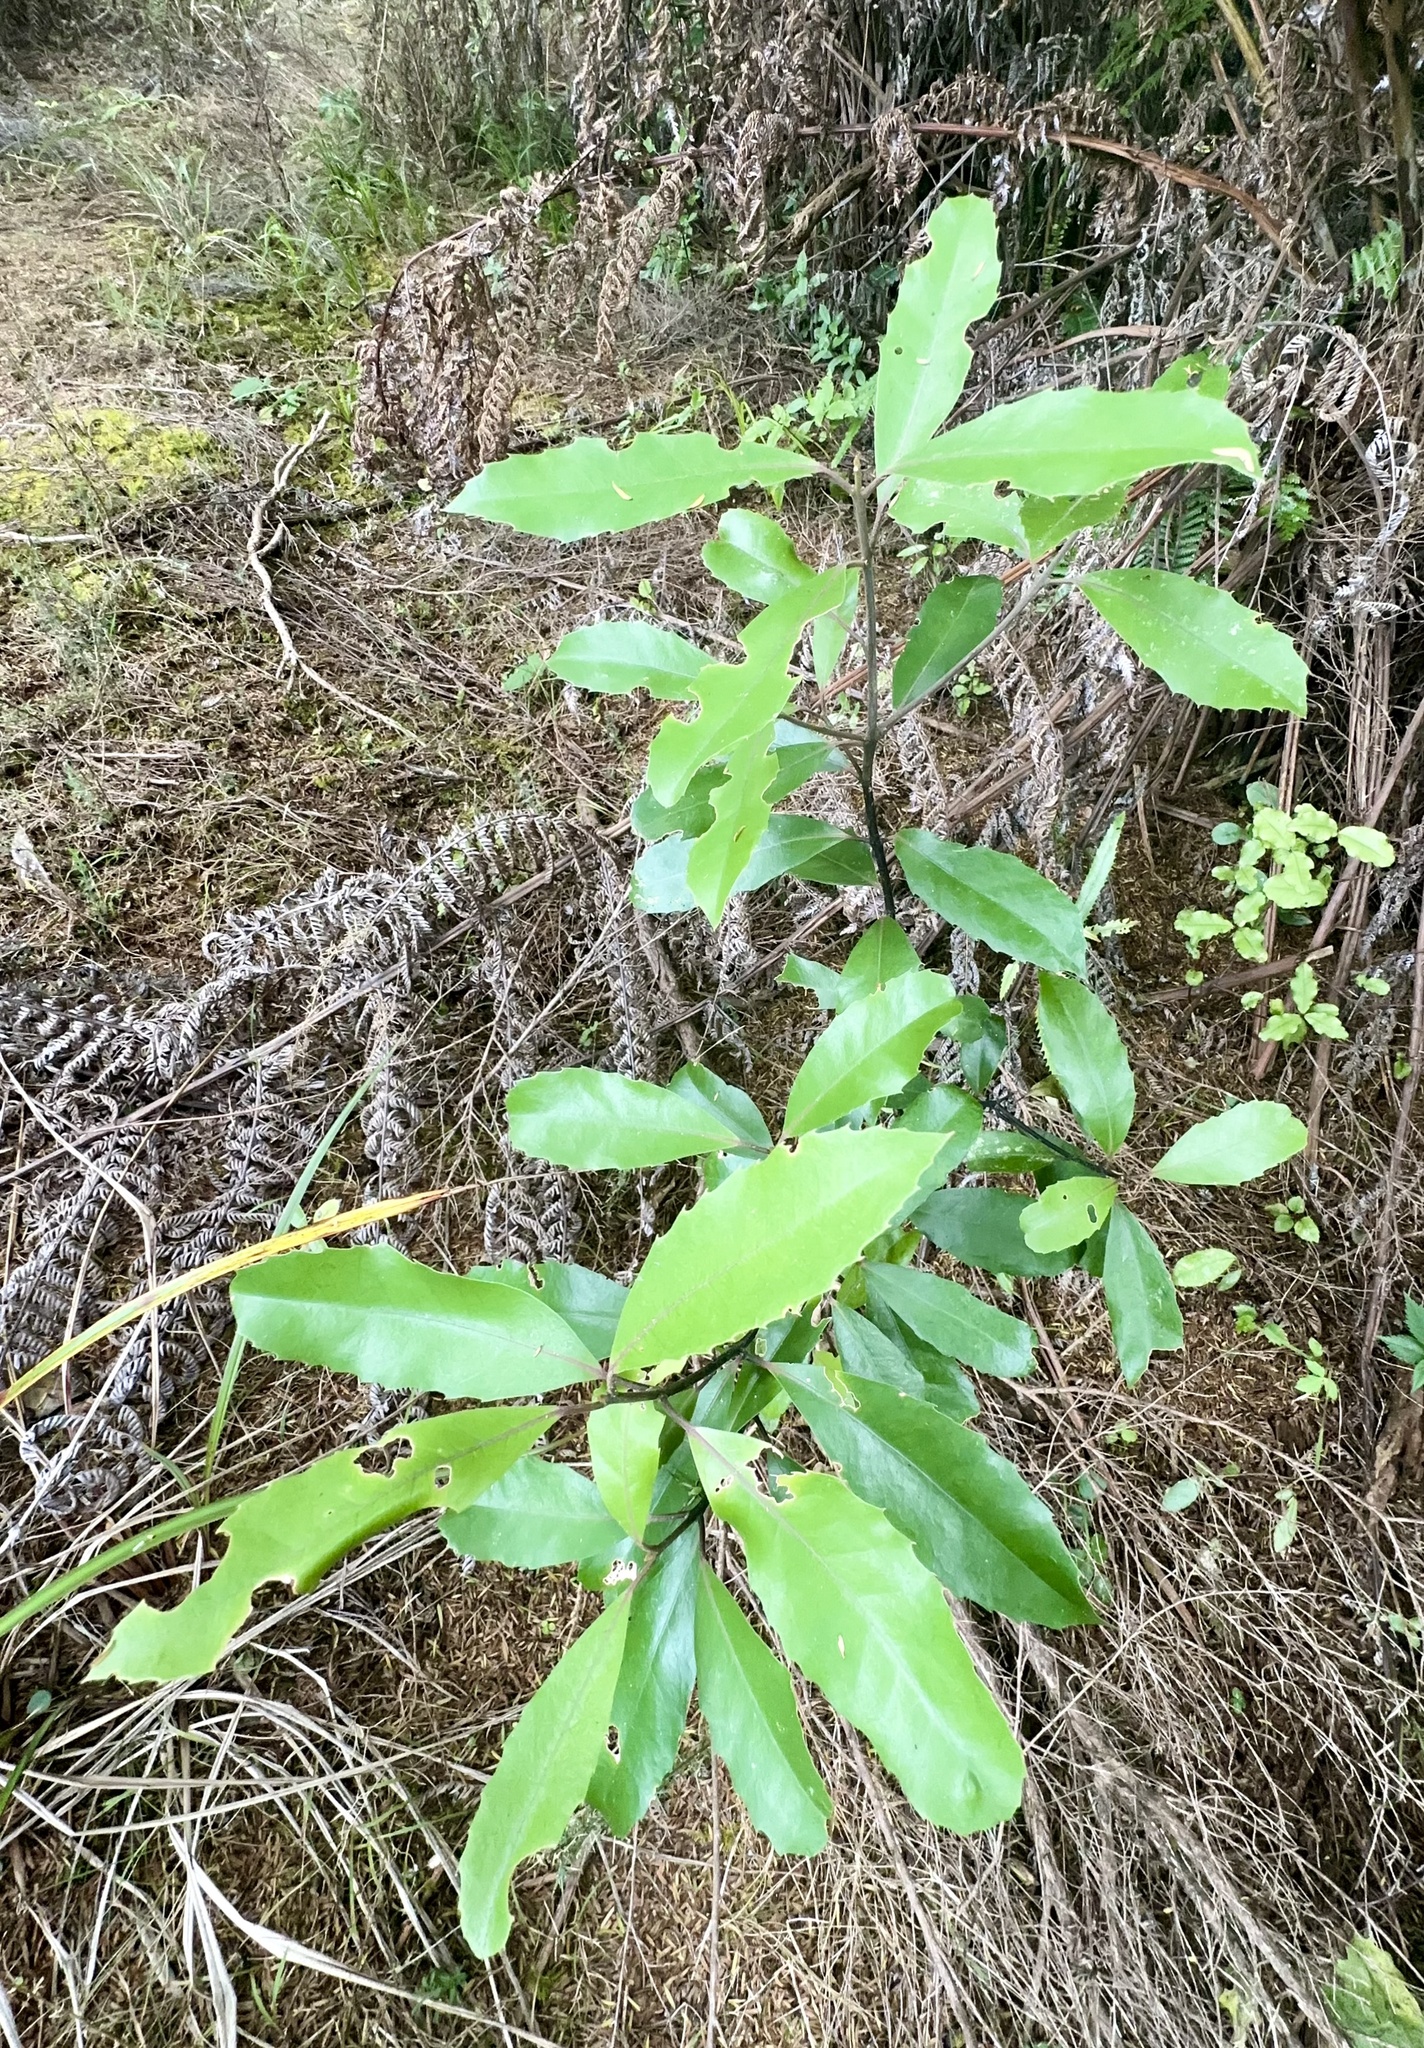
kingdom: Plantae
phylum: Tracheophyta
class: Magnoliopsida
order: Laurales
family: Monimiaceae
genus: Hedycarya
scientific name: Hedycarya arborea
